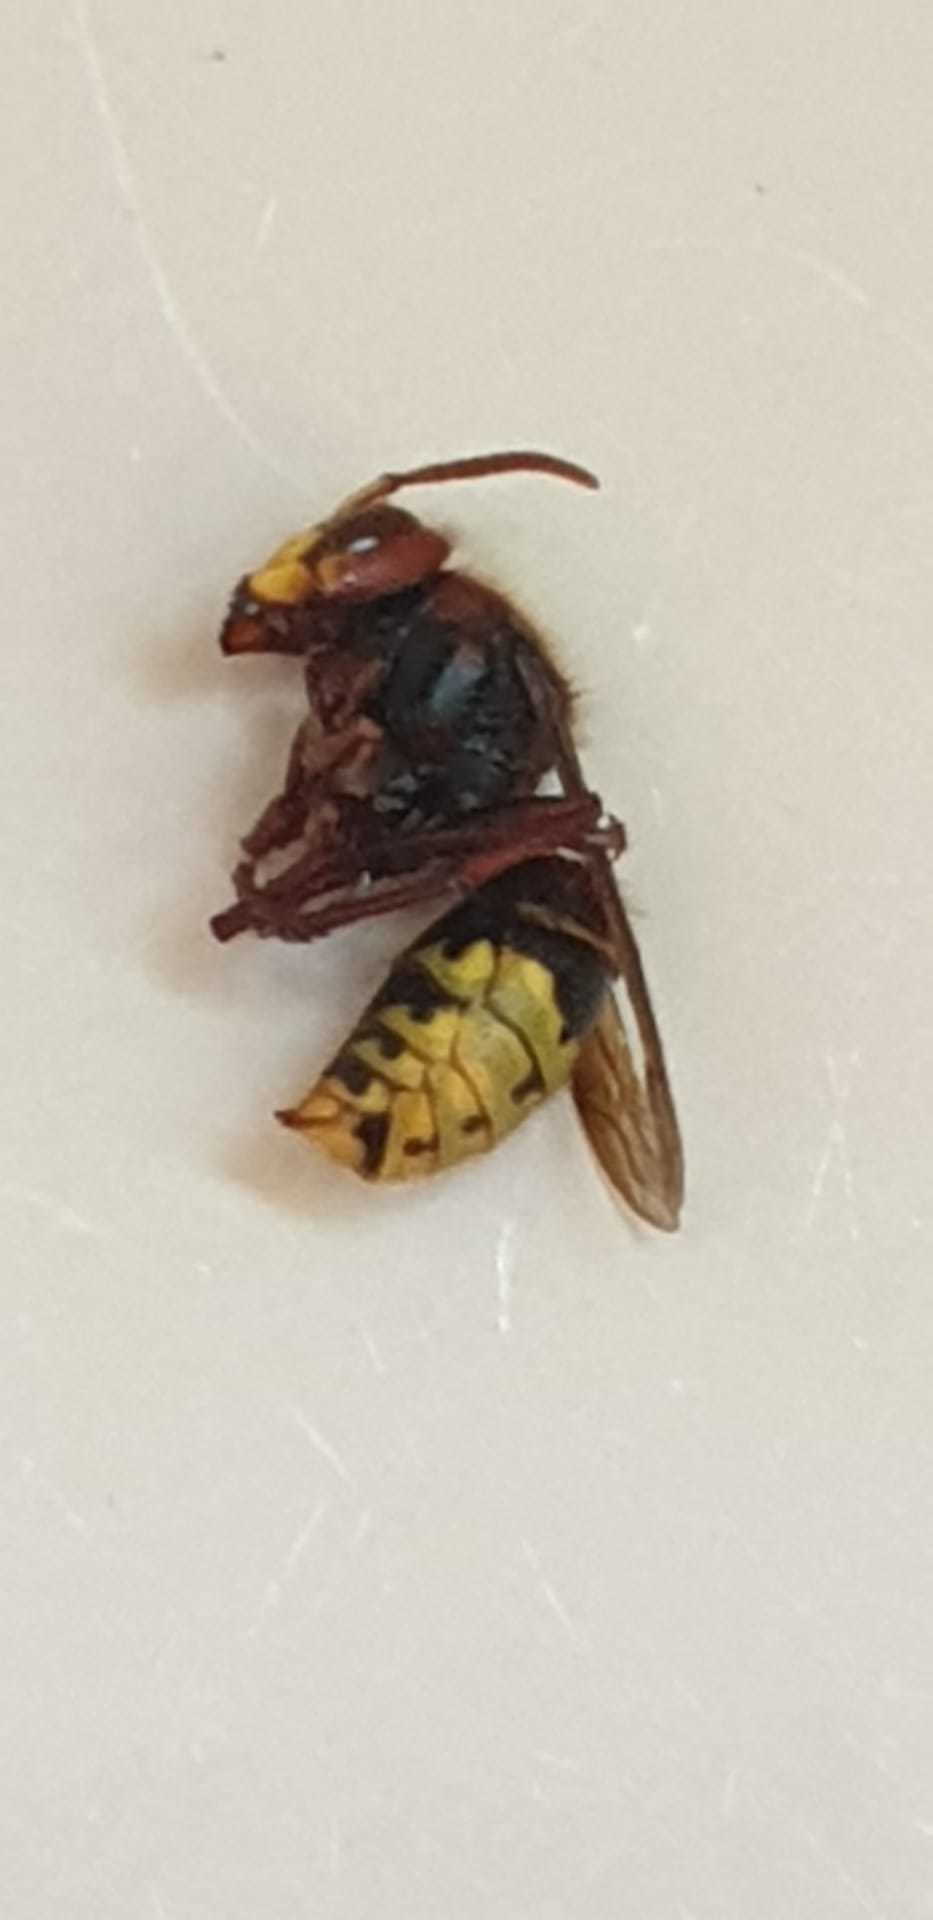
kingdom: Animalia
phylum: Arthropoda
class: Insecta
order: Hymenoptera
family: Vespidae
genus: Vespa
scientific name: Vespa crabro
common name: Hornet
